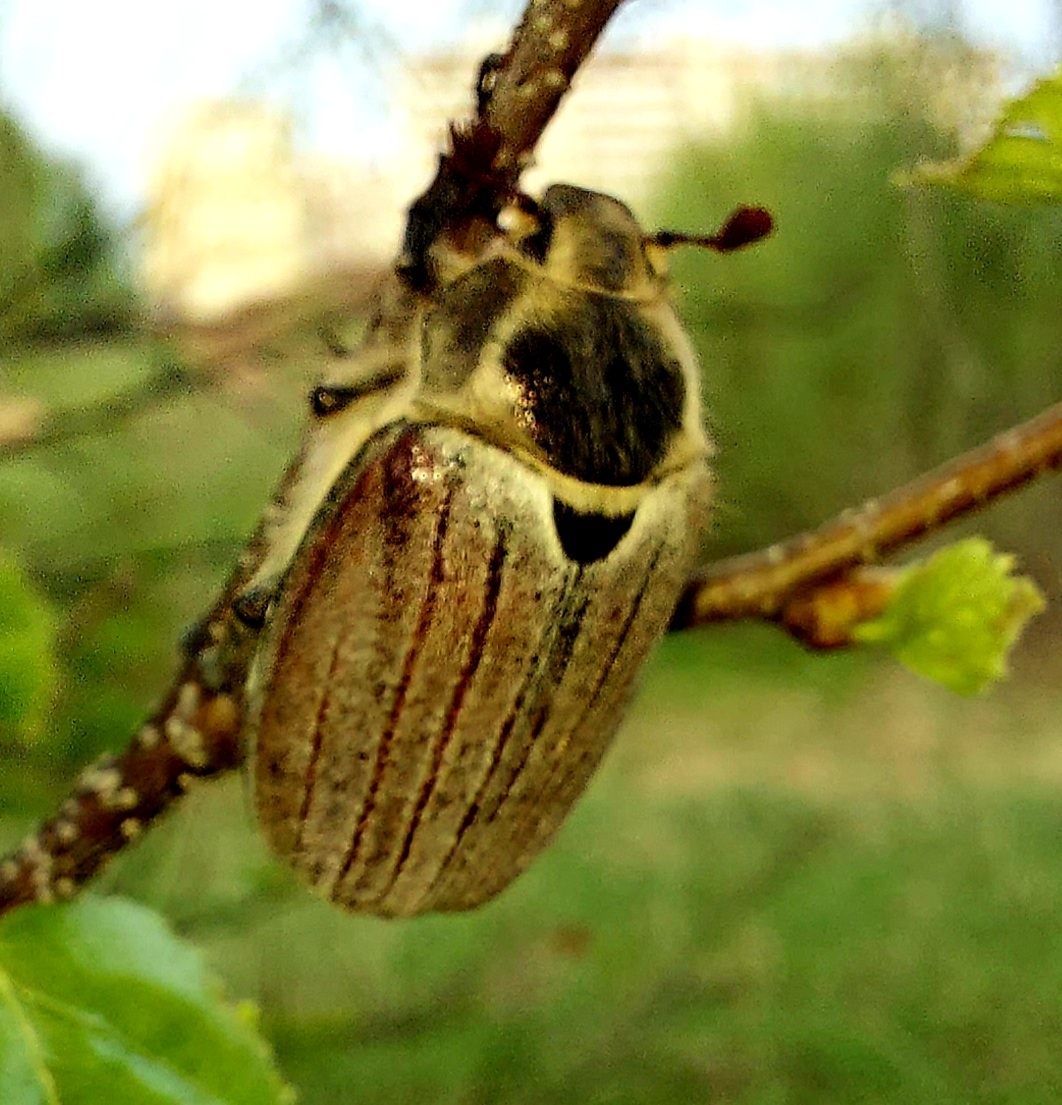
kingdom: Animalia
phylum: Arthropoda
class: Insecta
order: Coleoptera
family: Scarabaeidae
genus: Melolontha
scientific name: Melolontha hippocastani
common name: Chestnut cockchafer
